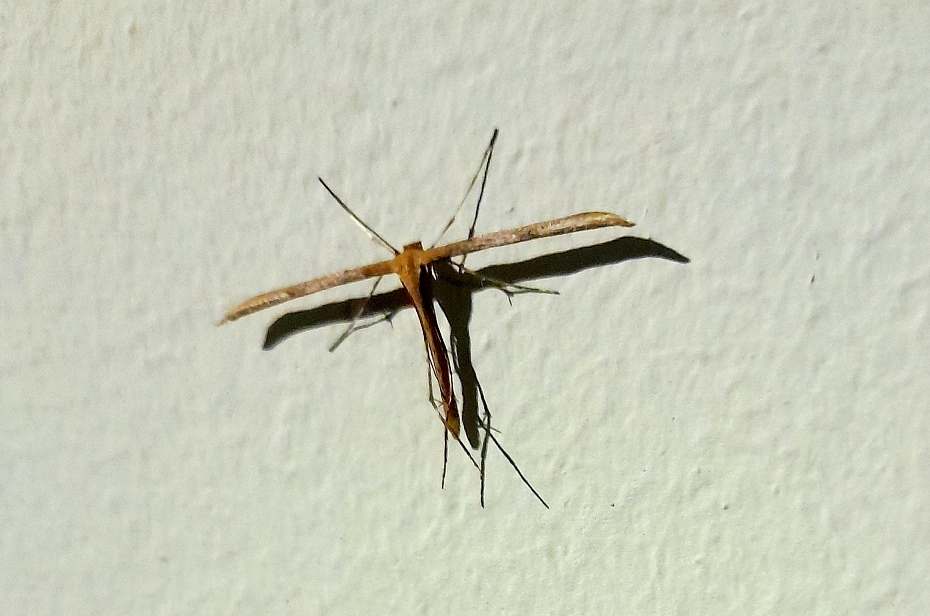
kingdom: Animalia
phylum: Arthropoda
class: Insecta
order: Lepidoptera
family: Pterophoridae
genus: Emmelina
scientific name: Emmelina monodactyla
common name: Common plume
